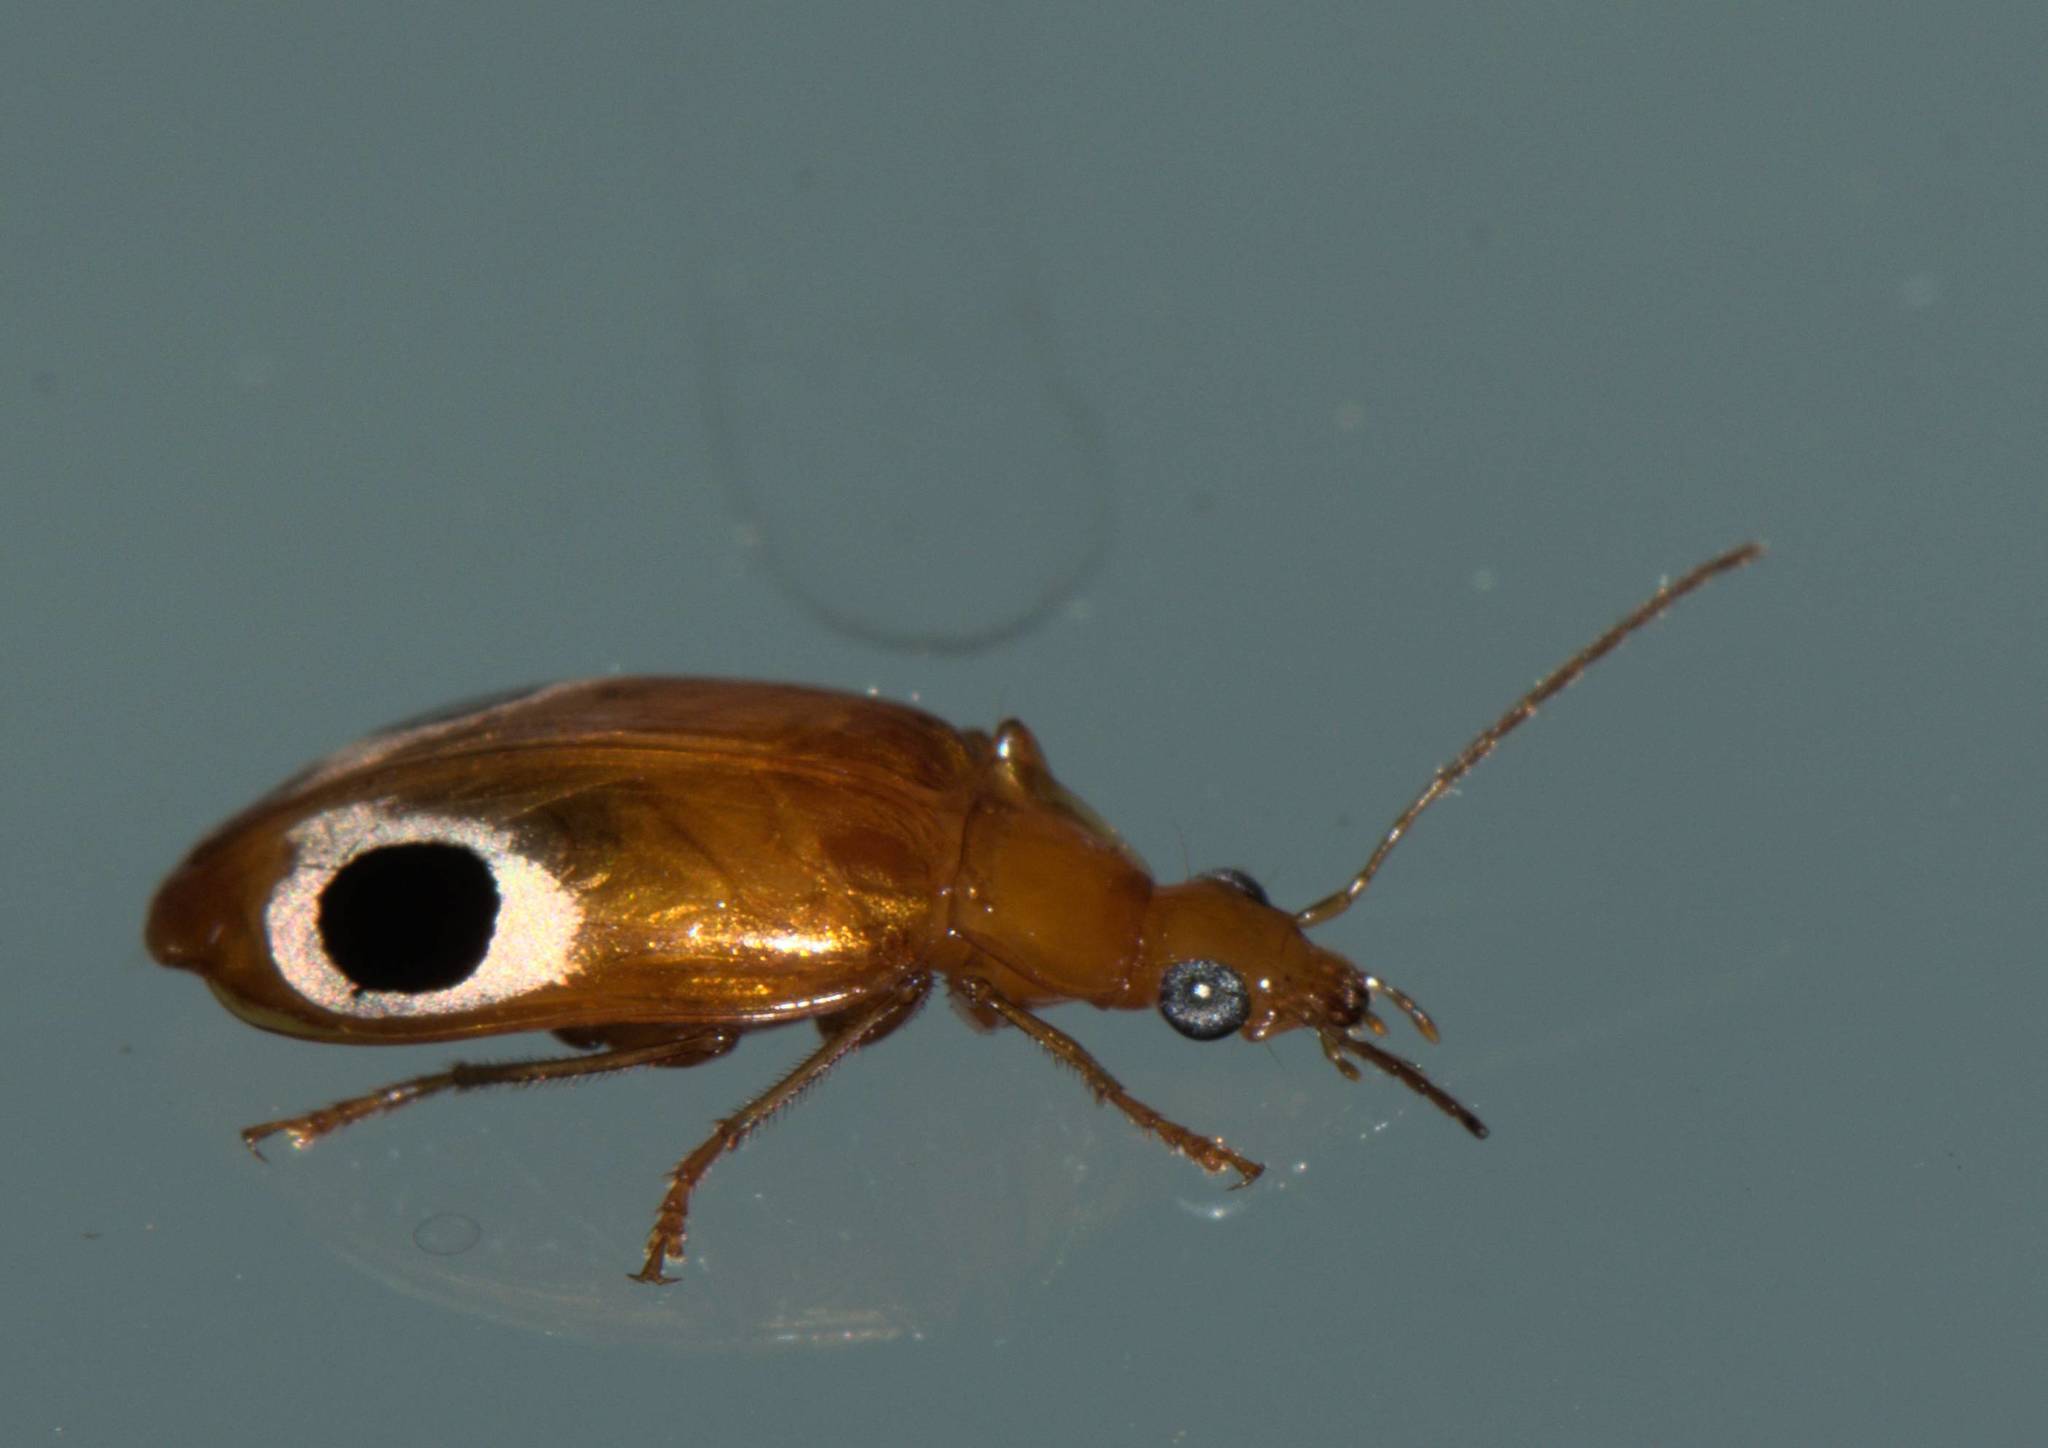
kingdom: Animalia
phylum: Arthropoda
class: Insecta
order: Coleoptera
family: Carabidae
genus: Lebidia
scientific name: Lebidia bioculata
